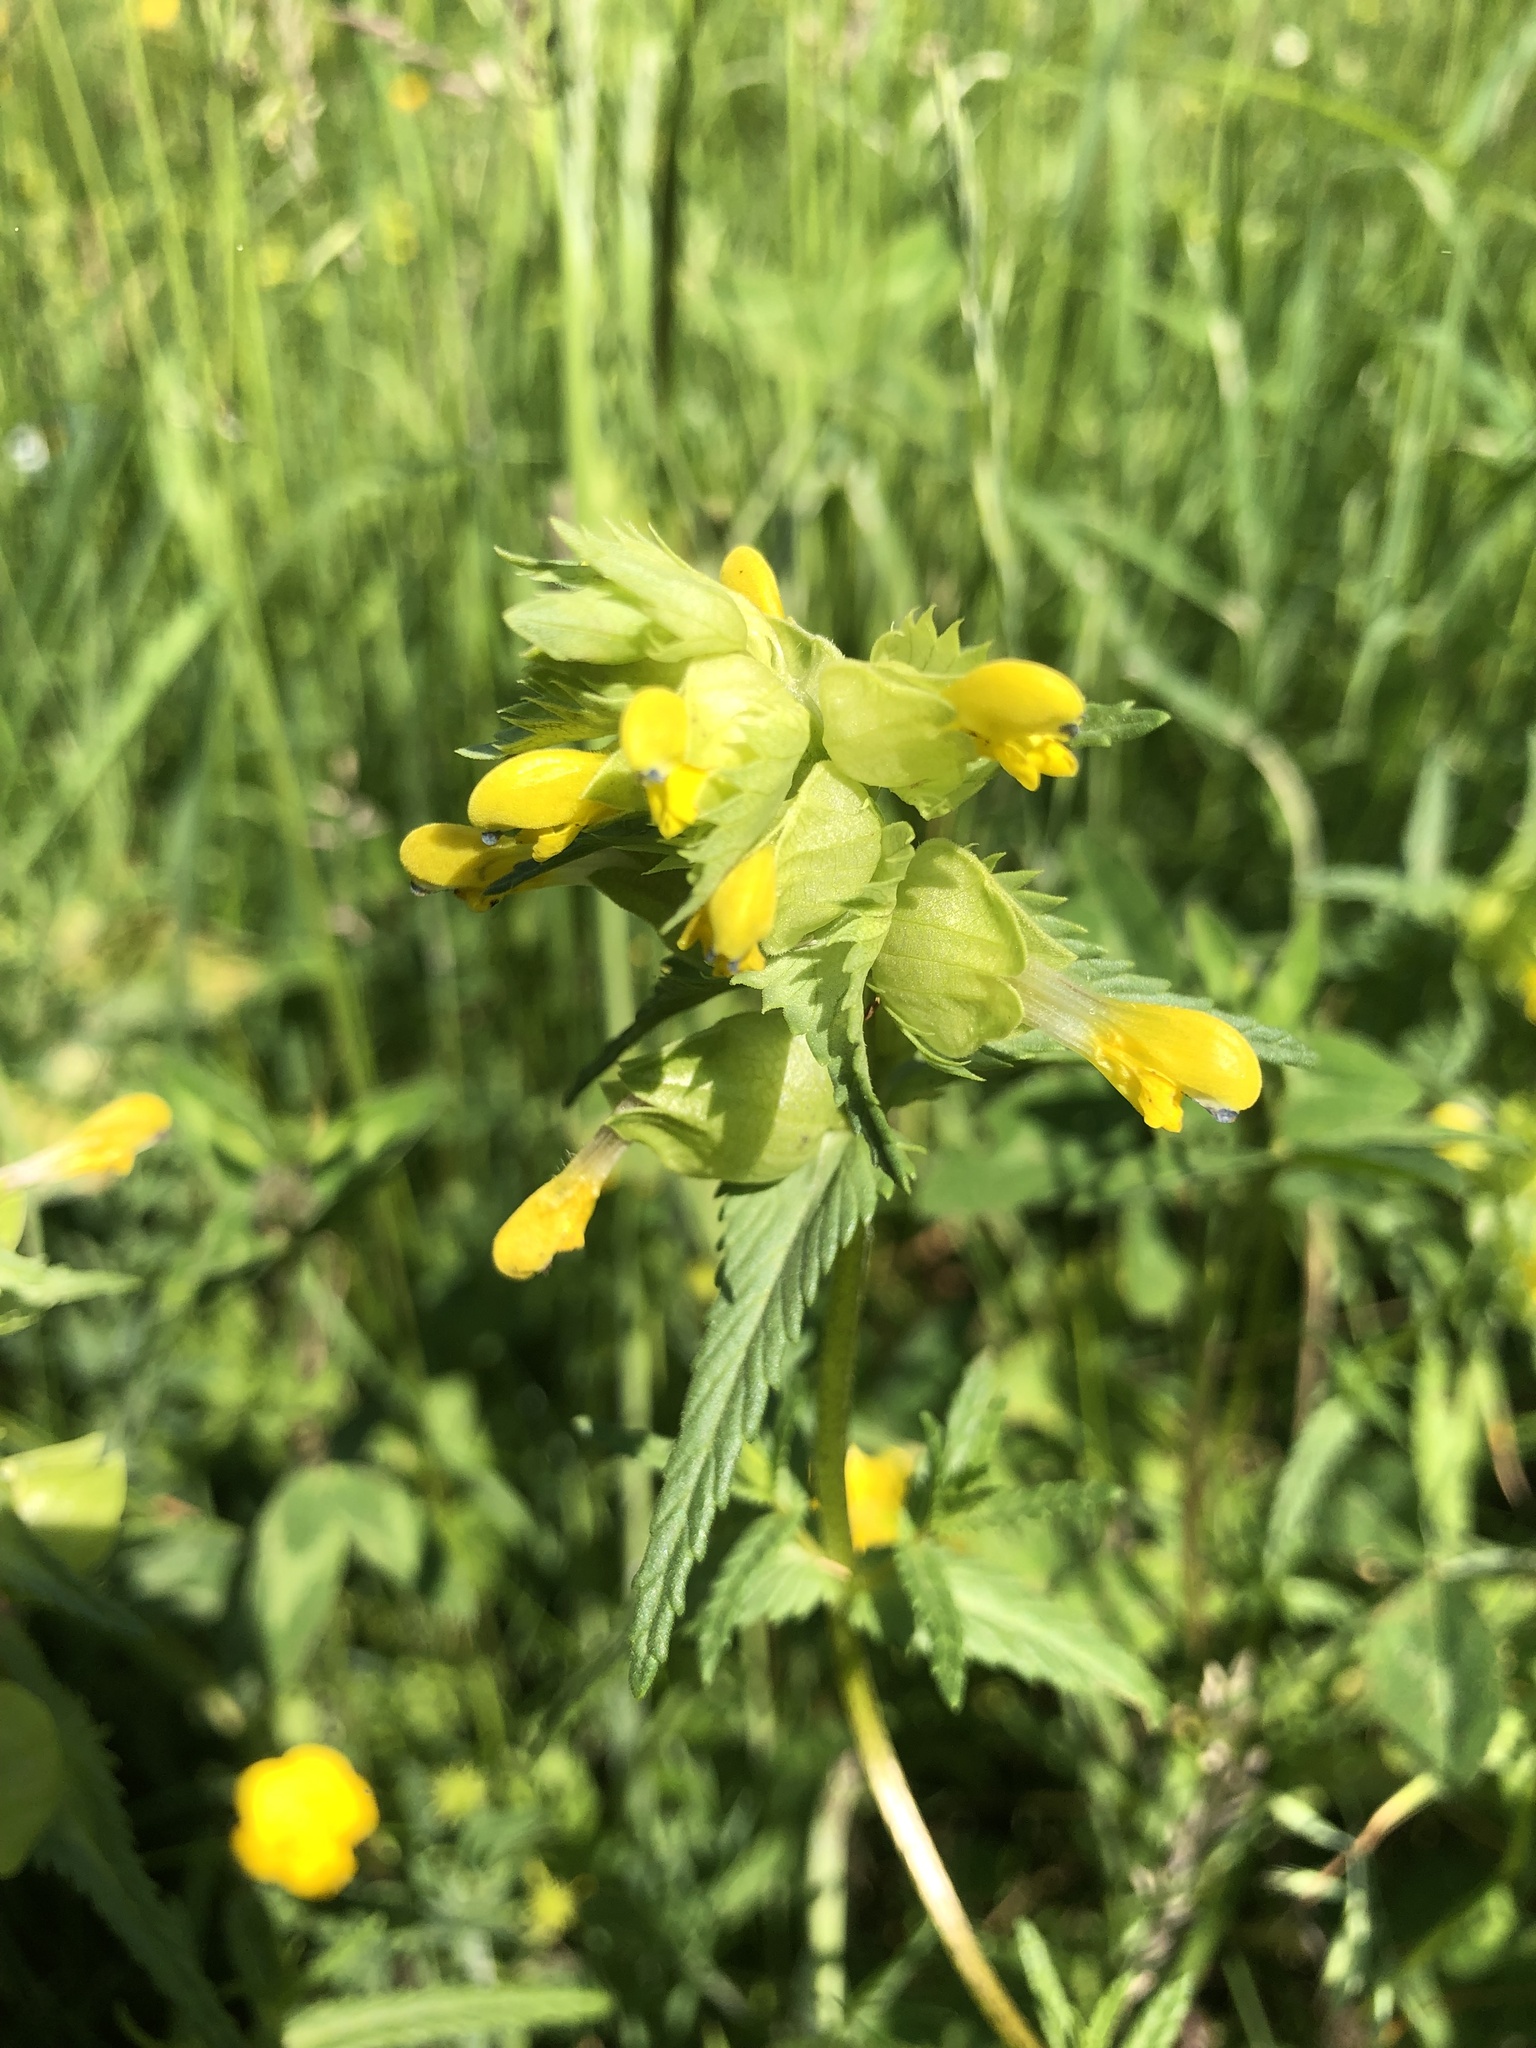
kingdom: Plantae
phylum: Tracheophyta
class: Magnoliopsida
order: Lamiales
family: Orobanchaceae
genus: Rhinanthus
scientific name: Rhinanthus minor
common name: Yellow-rattle
